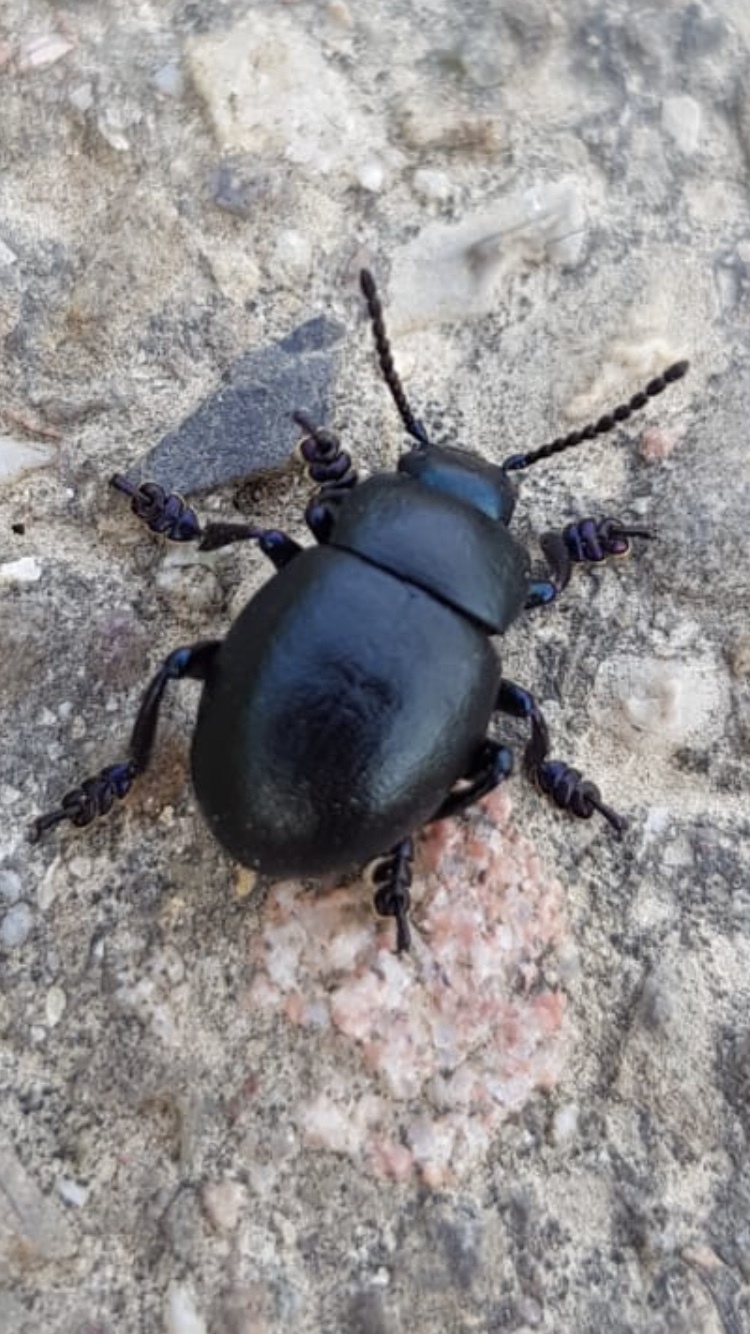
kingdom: Animalia
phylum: Arthropoda
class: Insecta
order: Coleoptera
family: Chrysomelidae
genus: Timarcha
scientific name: Timarcha goettingensis
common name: Small bloody-nosed beetle
